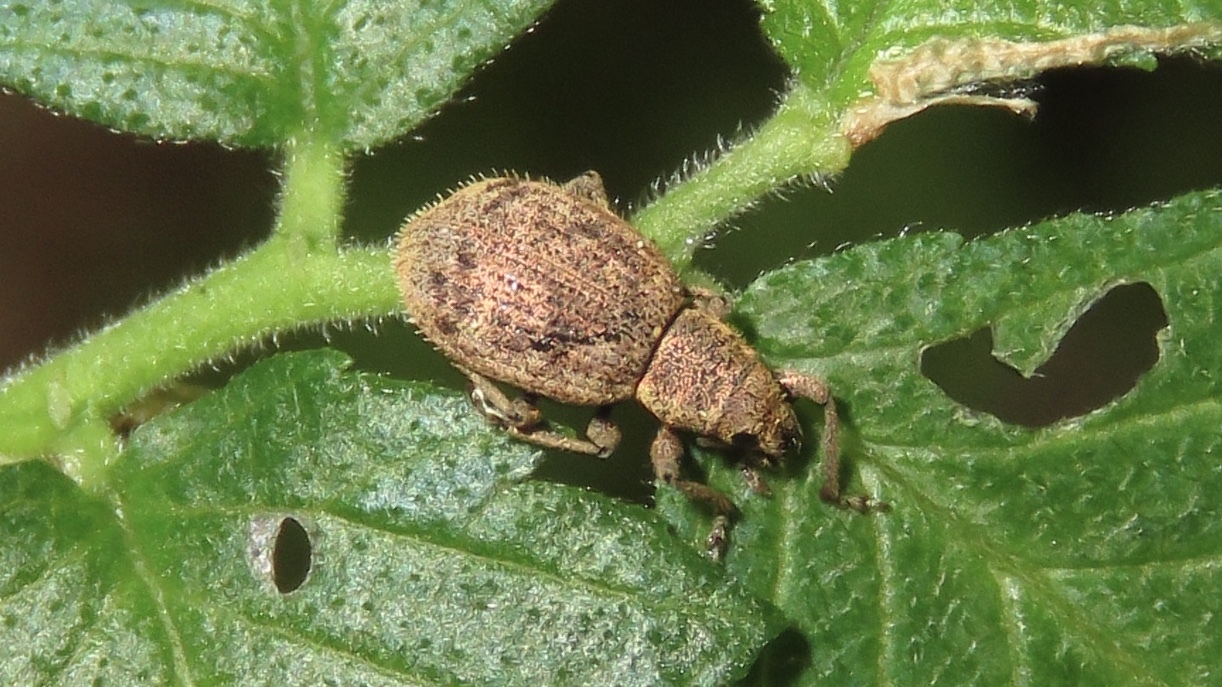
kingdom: Animalia
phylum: Arthropoda
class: Insecta
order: Coleoptera
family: Curculionidae
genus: Sciaphilus
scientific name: Sciaphilus asperatus
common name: Weevil
